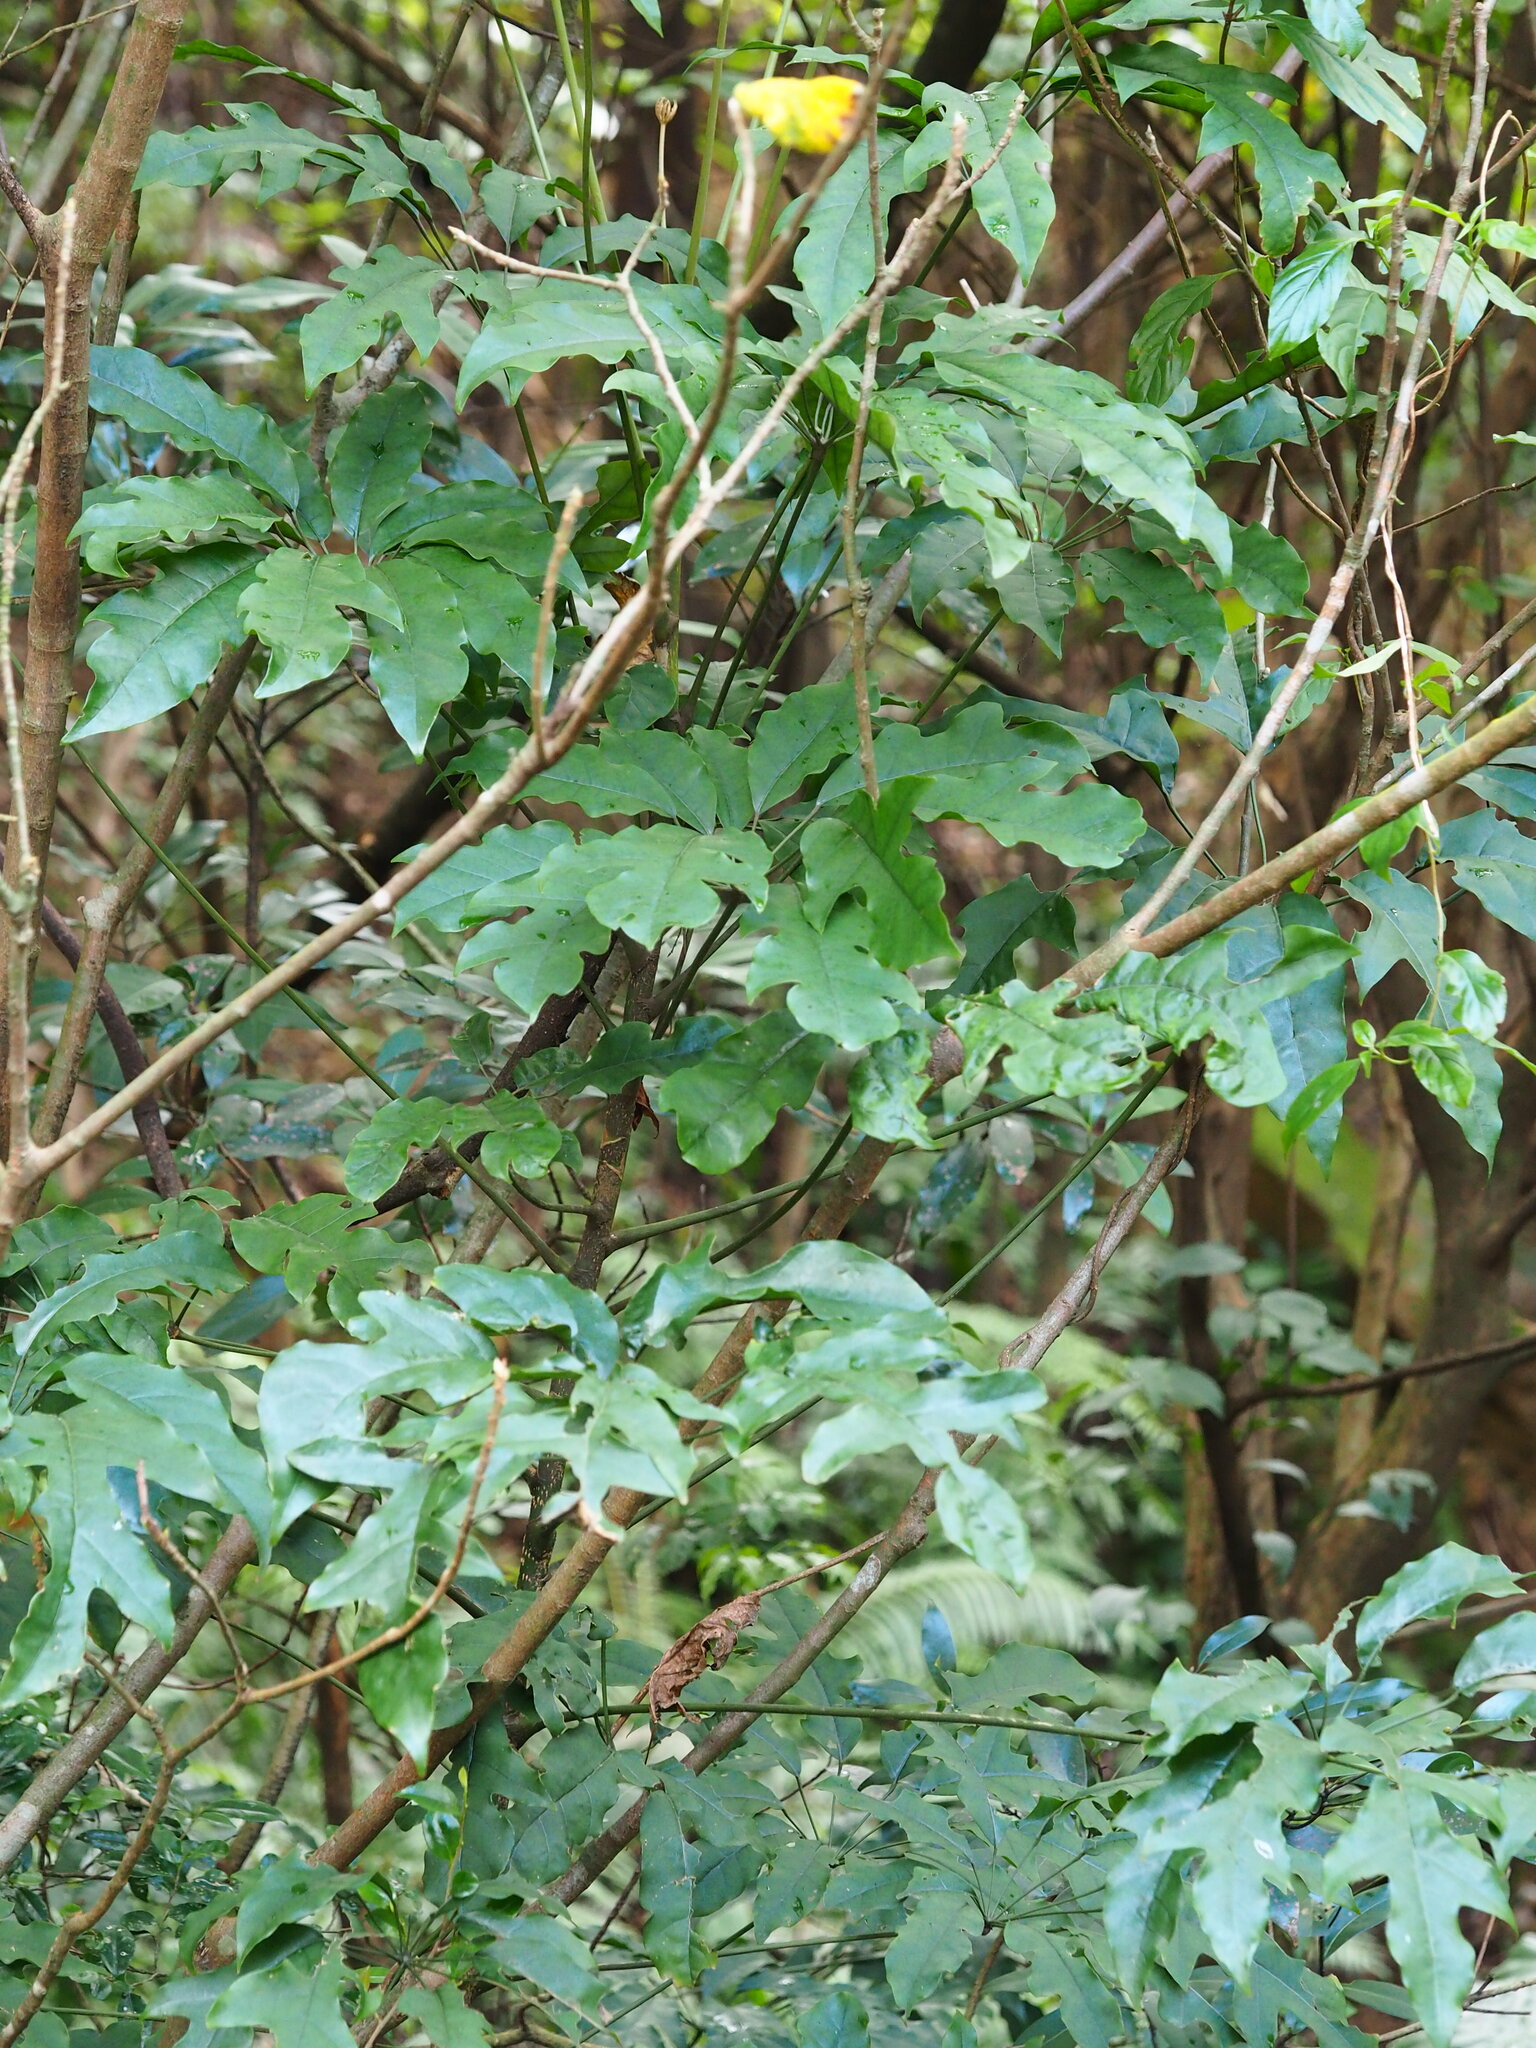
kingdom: Plantae
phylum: Tracheophyta
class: Magnoliopsida
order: Apiales
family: Araliaceae
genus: Heptapleurum
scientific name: Heptapleurum heptaphyllum
